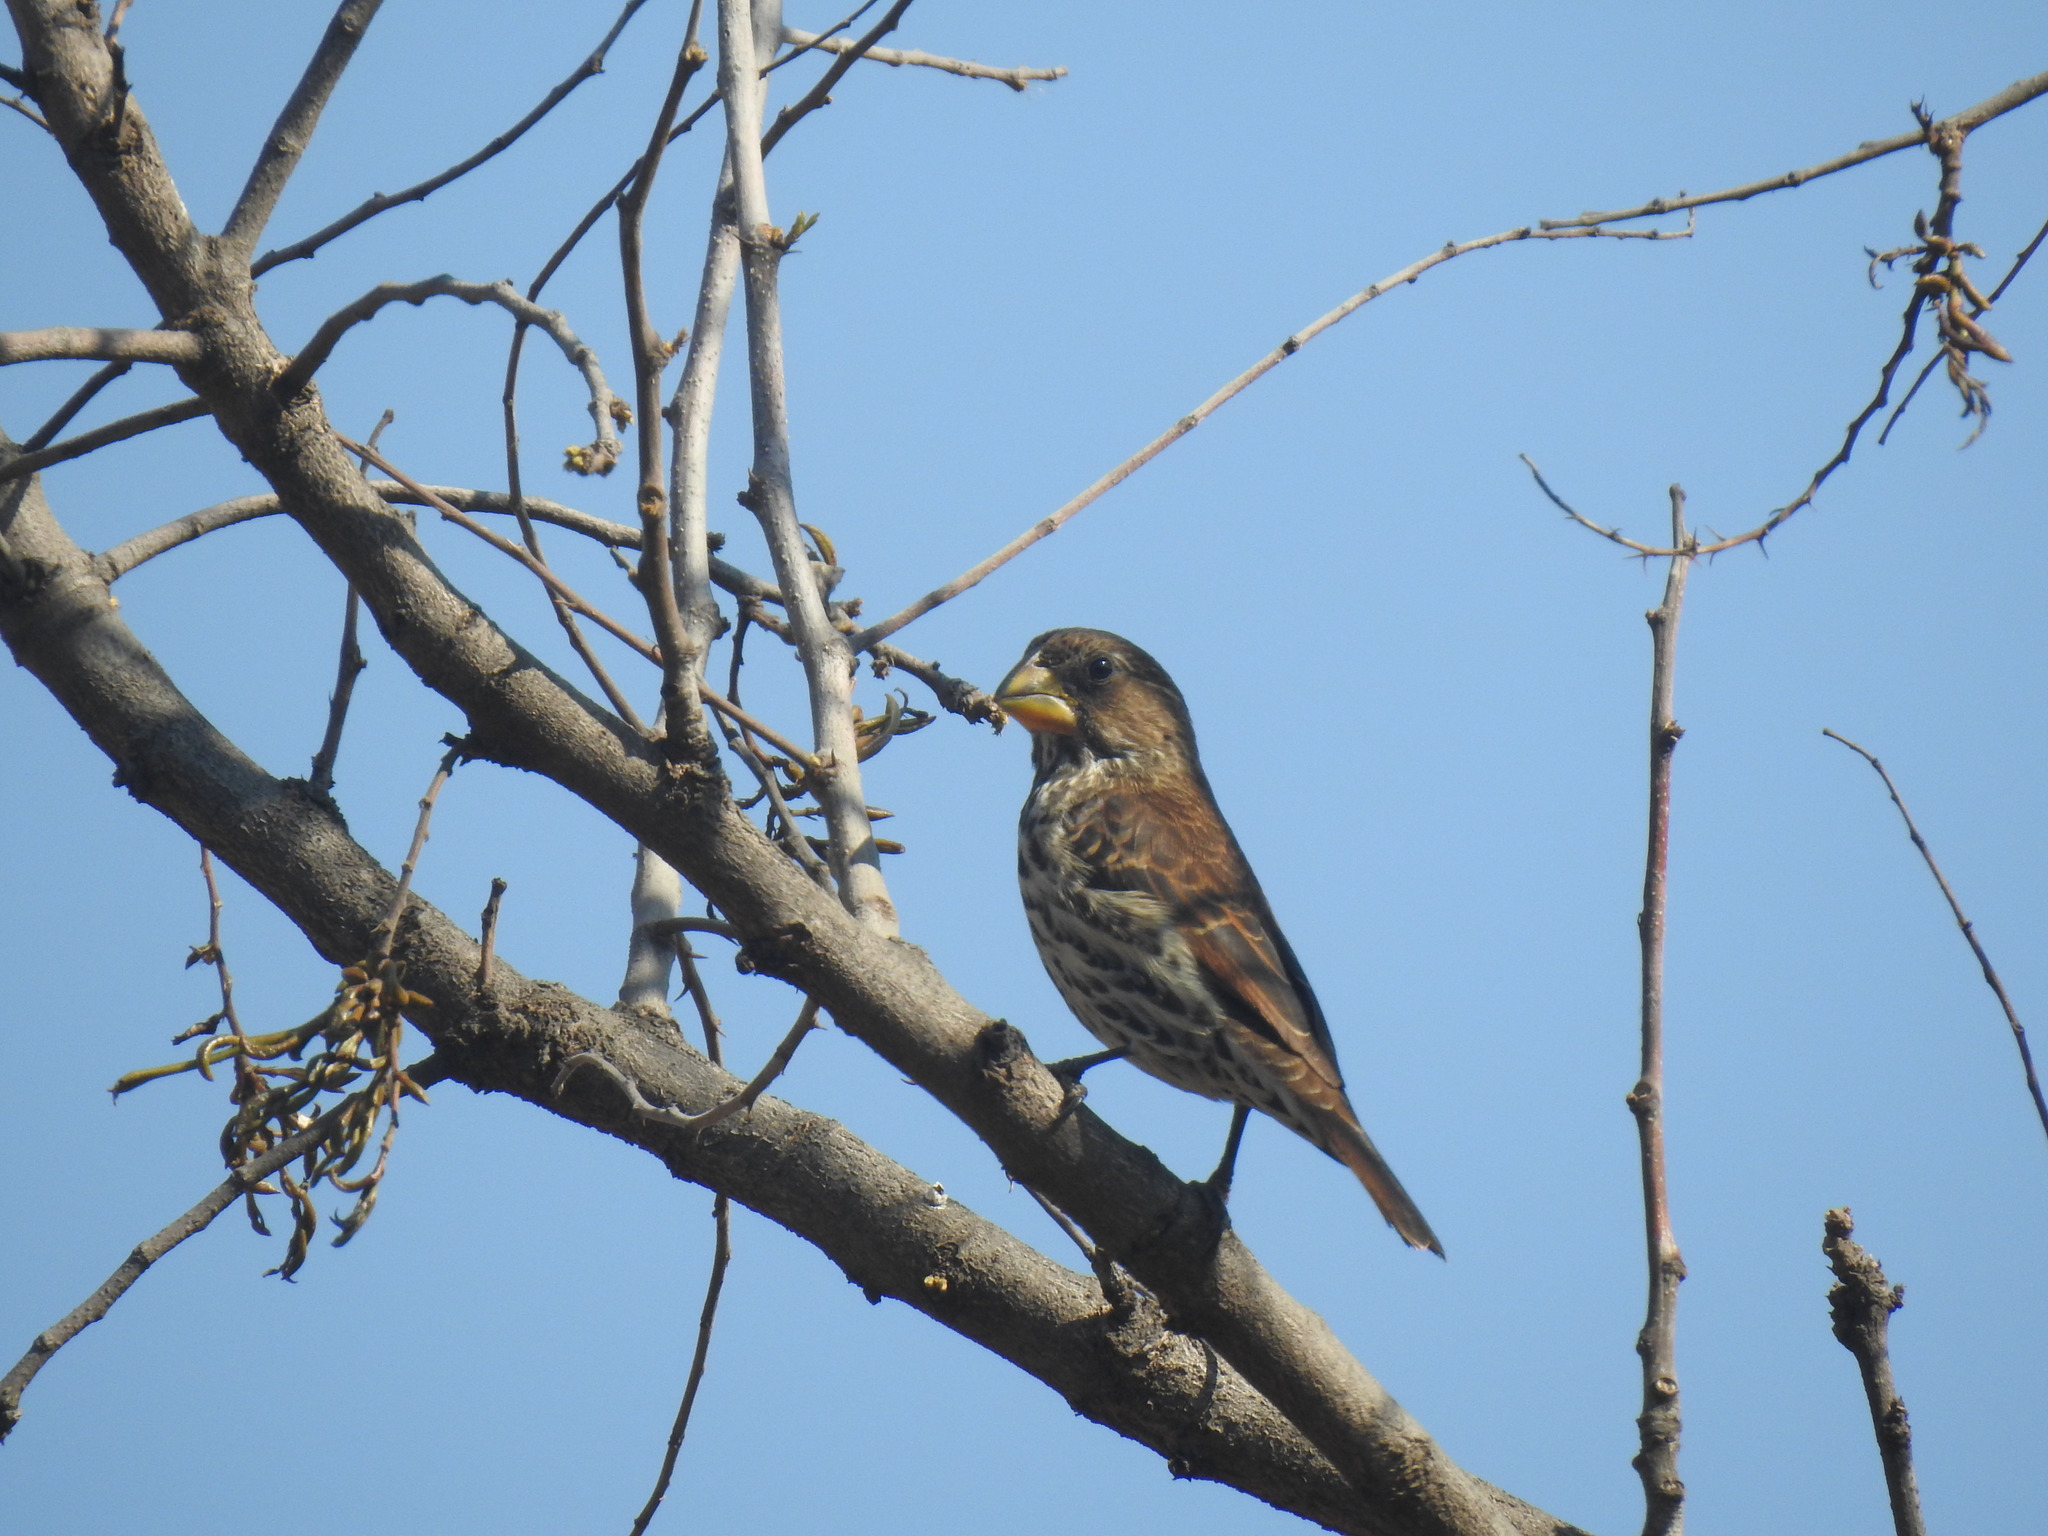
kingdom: Animalia
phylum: Chordata
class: Aves
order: Passeriformes
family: Ploceidae
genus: Amblyospiza
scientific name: Amblyospiza albifrons
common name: Thick-billed weaver
